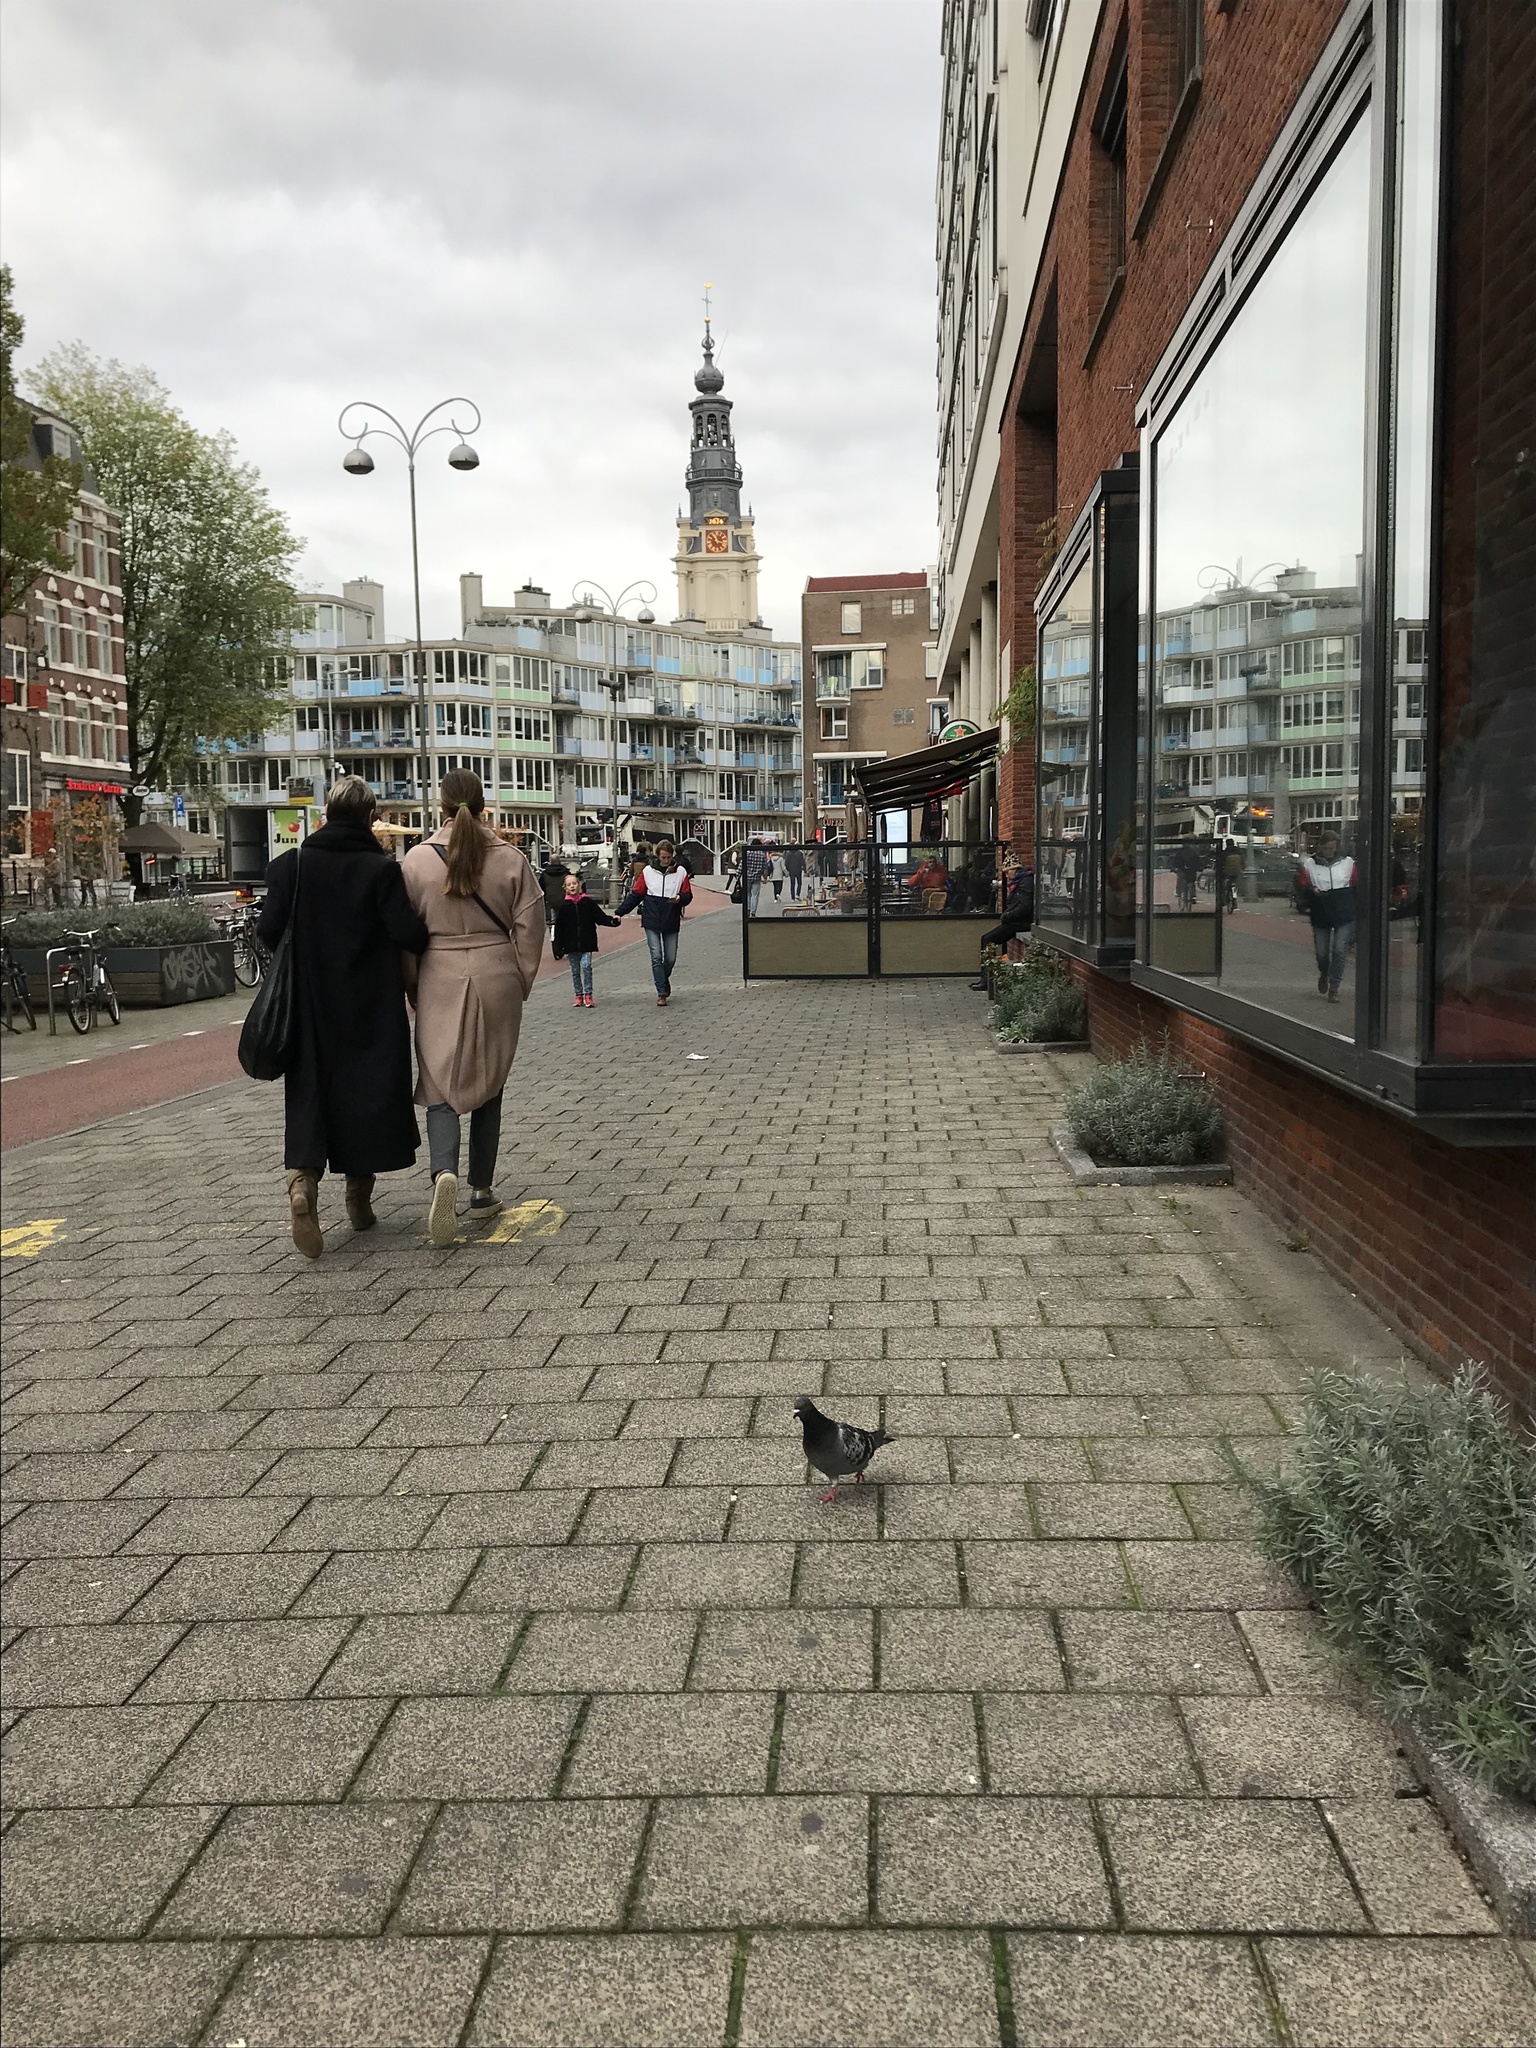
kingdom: Animalia
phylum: Chordata
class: Aves
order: Columbiformes
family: Columbidae
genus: Columba
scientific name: Columba livia
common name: Rock pigeon
